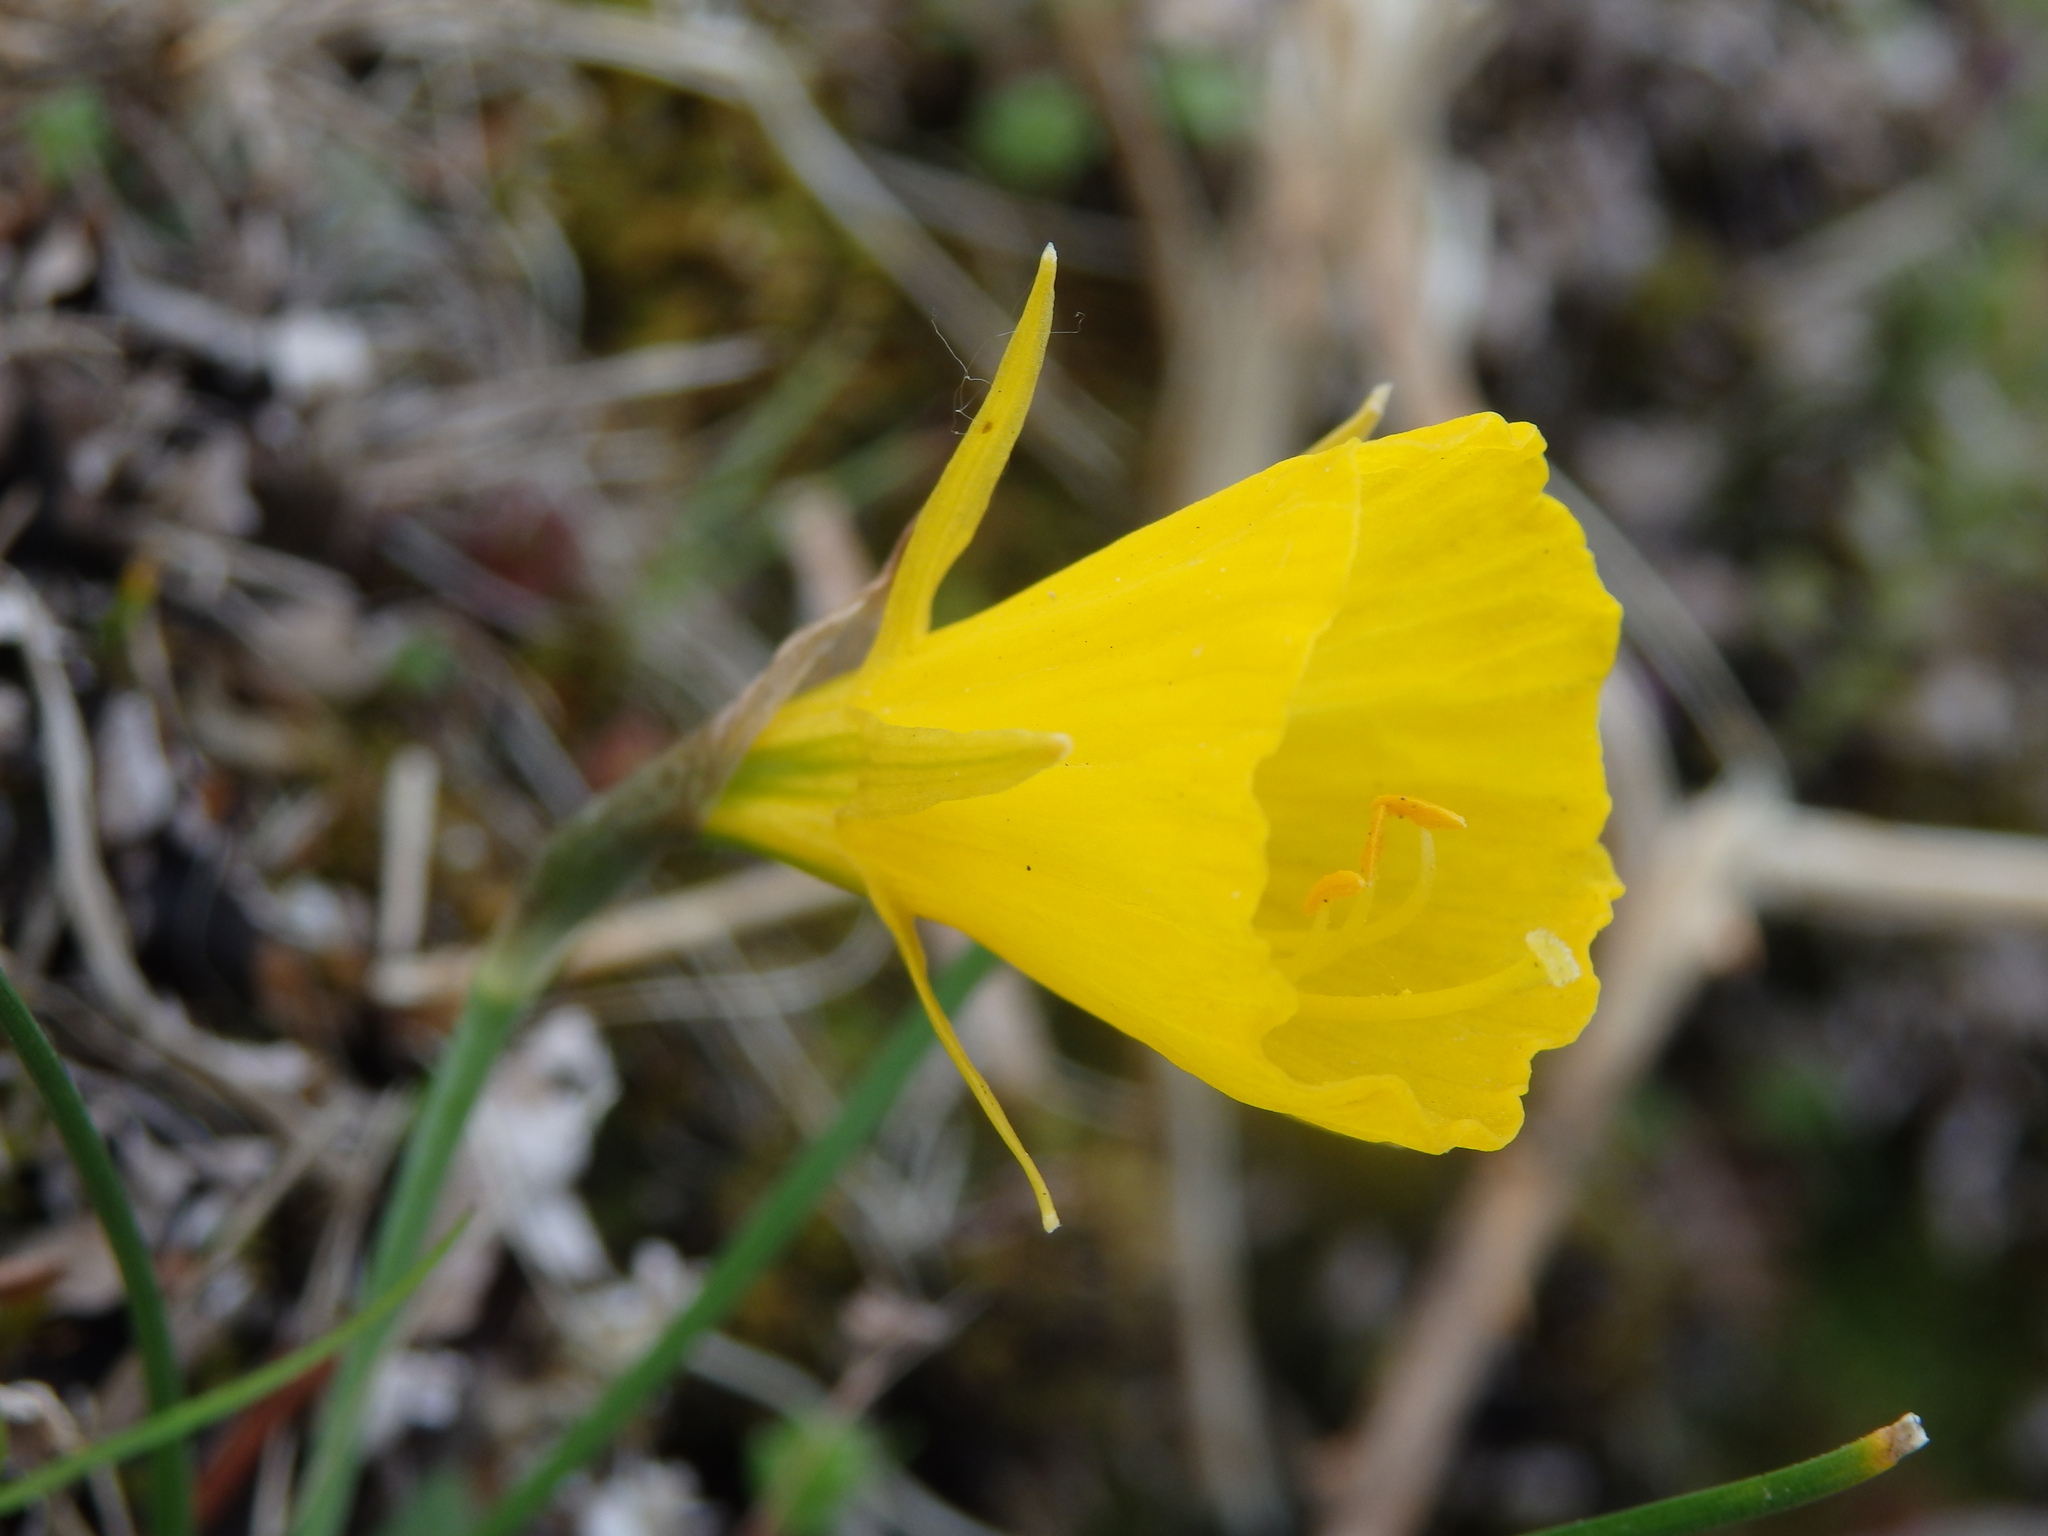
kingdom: Plantae
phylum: Tracheophyta
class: Liliopsida
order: Asparagales
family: Amaryllidaceae
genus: Narcissus
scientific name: Narcissus bulbocodium
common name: Hoop-petticoat daffodil
